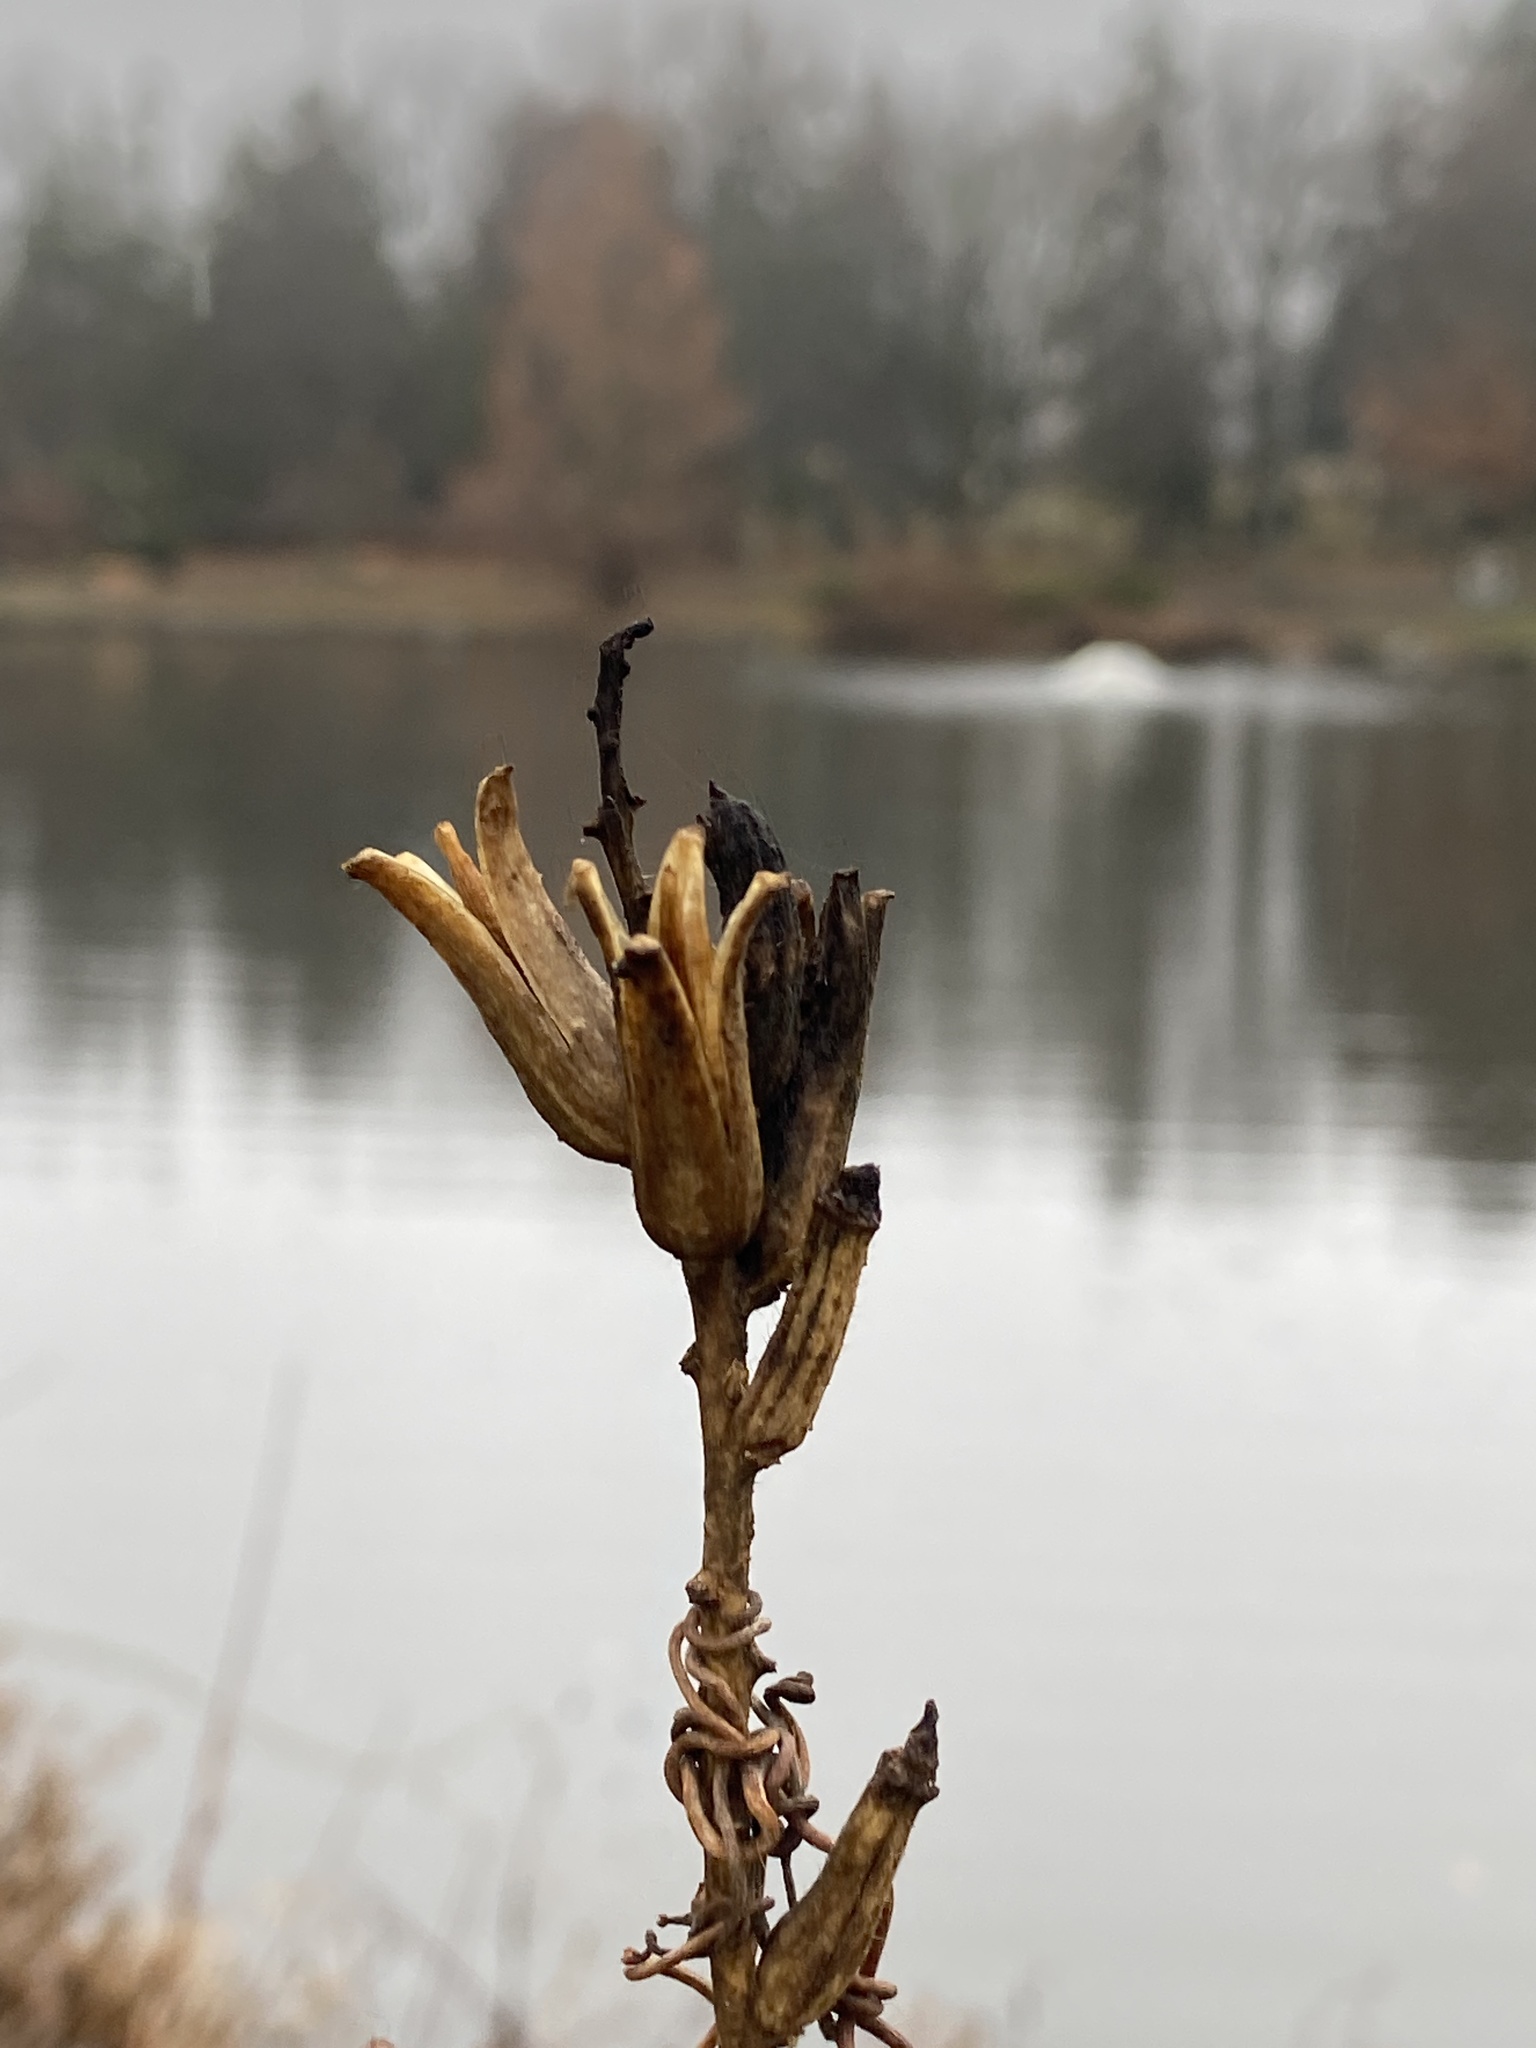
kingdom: Plantae
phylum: Tracheophyta
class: Magnoliopsida
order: Myrtales
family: Onagraceae
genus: Oenothera
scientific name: Oenothera biennis
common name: Common evening-primrose
